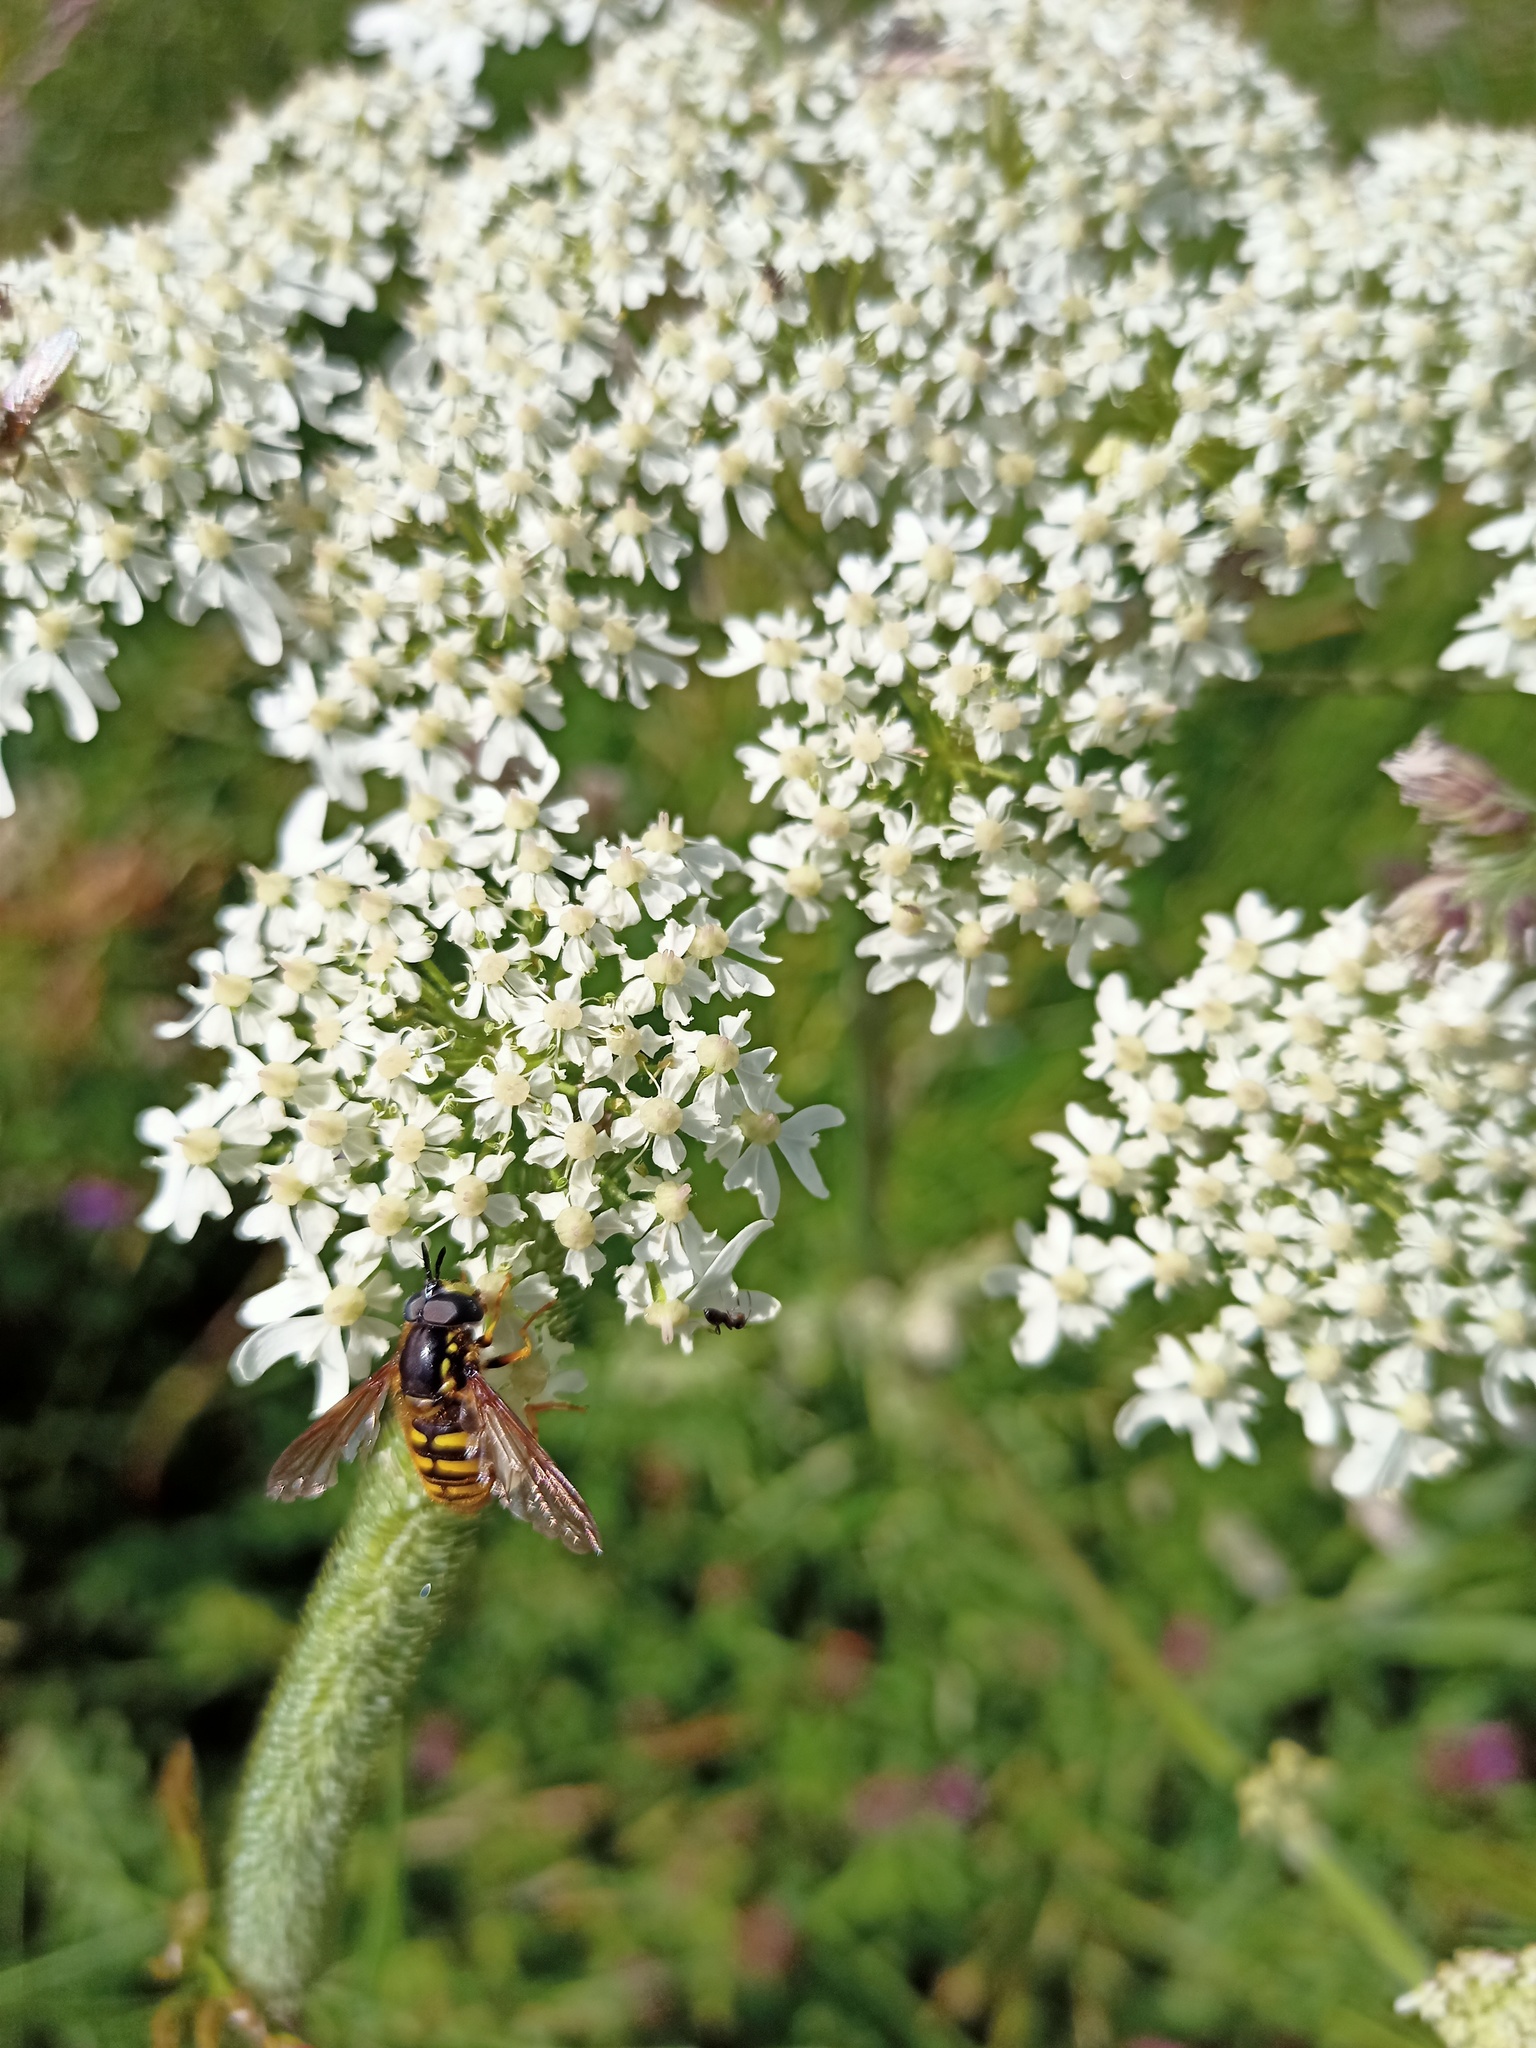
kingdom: Animalia
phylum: Arthropoda
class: Insecta
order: Diptera
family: Syrphidae
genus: Sericomyia
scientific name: Sericomyia silentis
